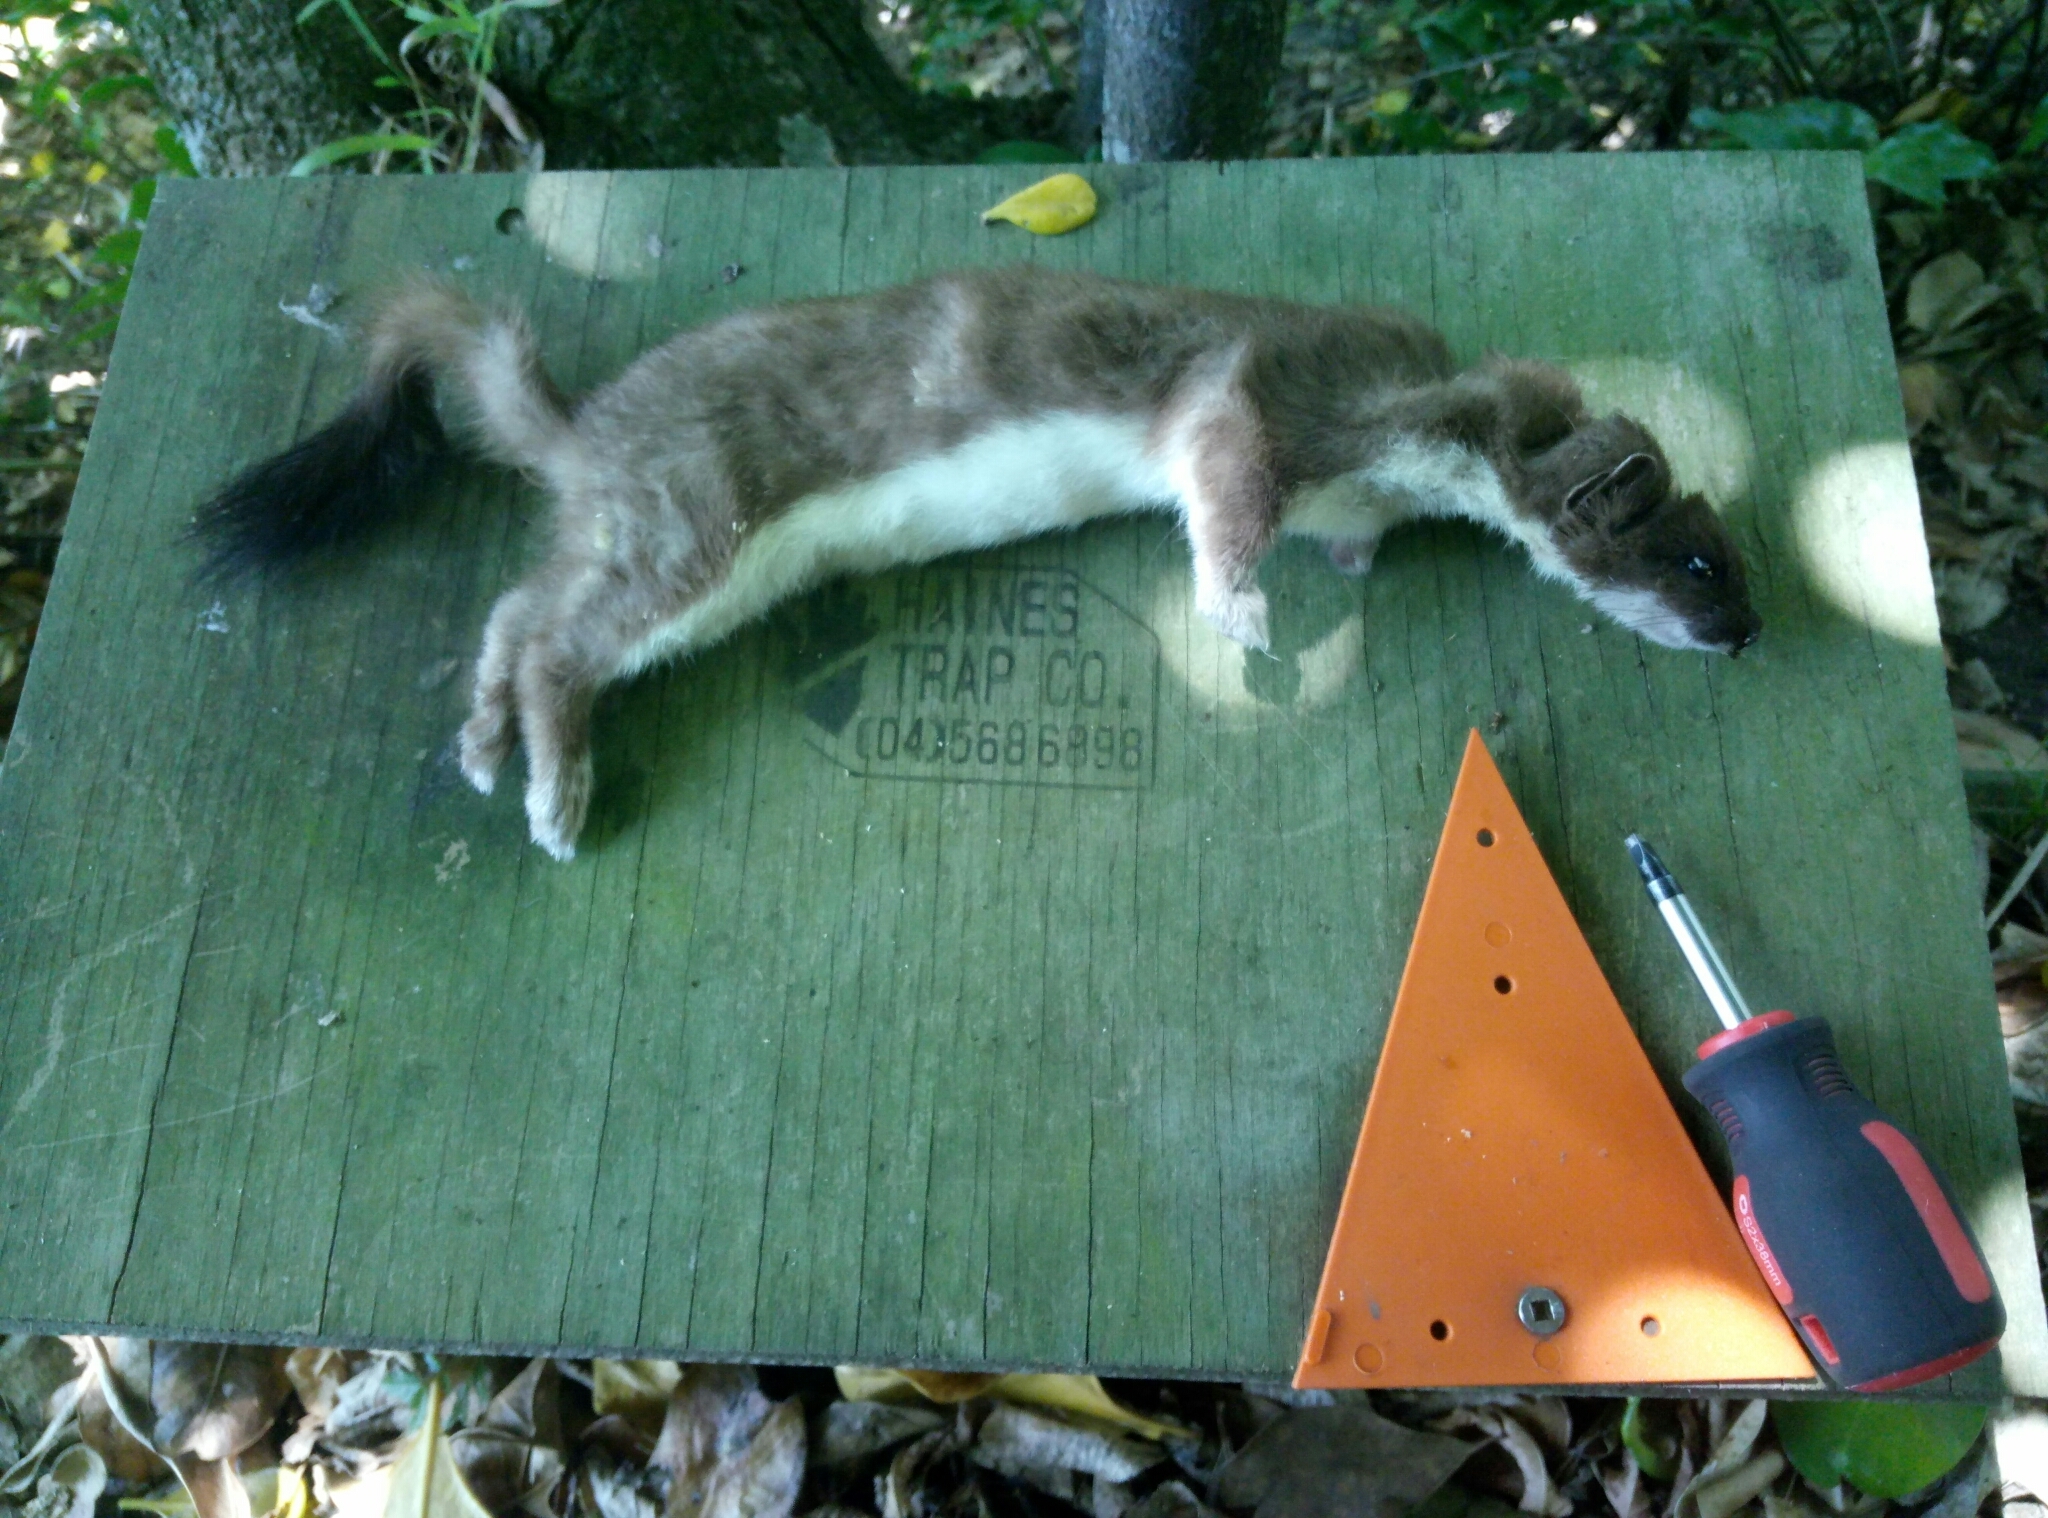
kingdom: Animalia
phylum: Chordata
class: Mammalia
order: Carnivora
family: Mustelidae
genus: Mustela
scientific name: Mustela erminea
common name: Stoat
